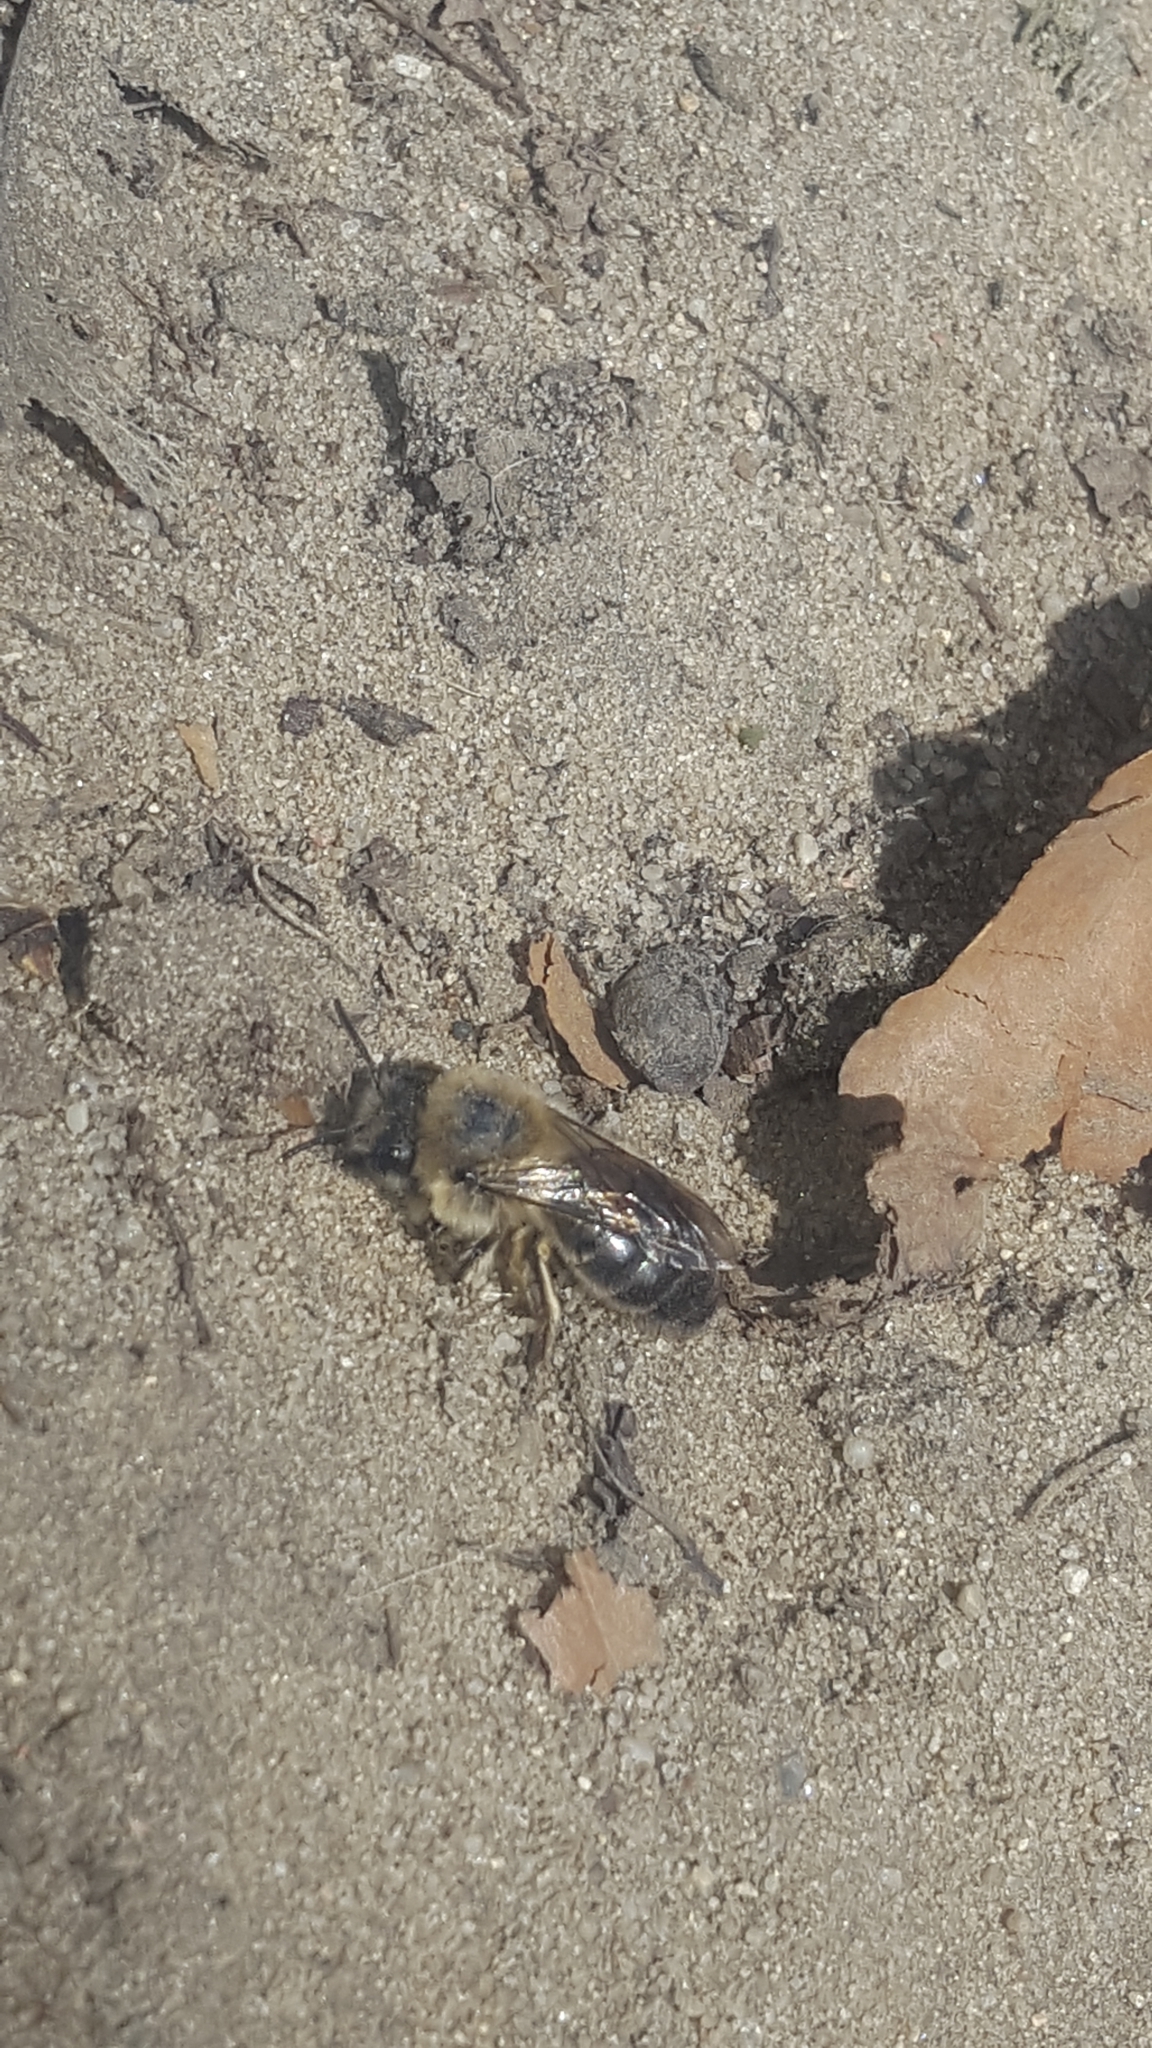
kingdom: Animalia
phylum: Arthropoda
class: Insecta
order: Hymenoptera
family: Colletidae
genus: Colletes
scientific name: Colletes cunicularius
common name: Early colletes
